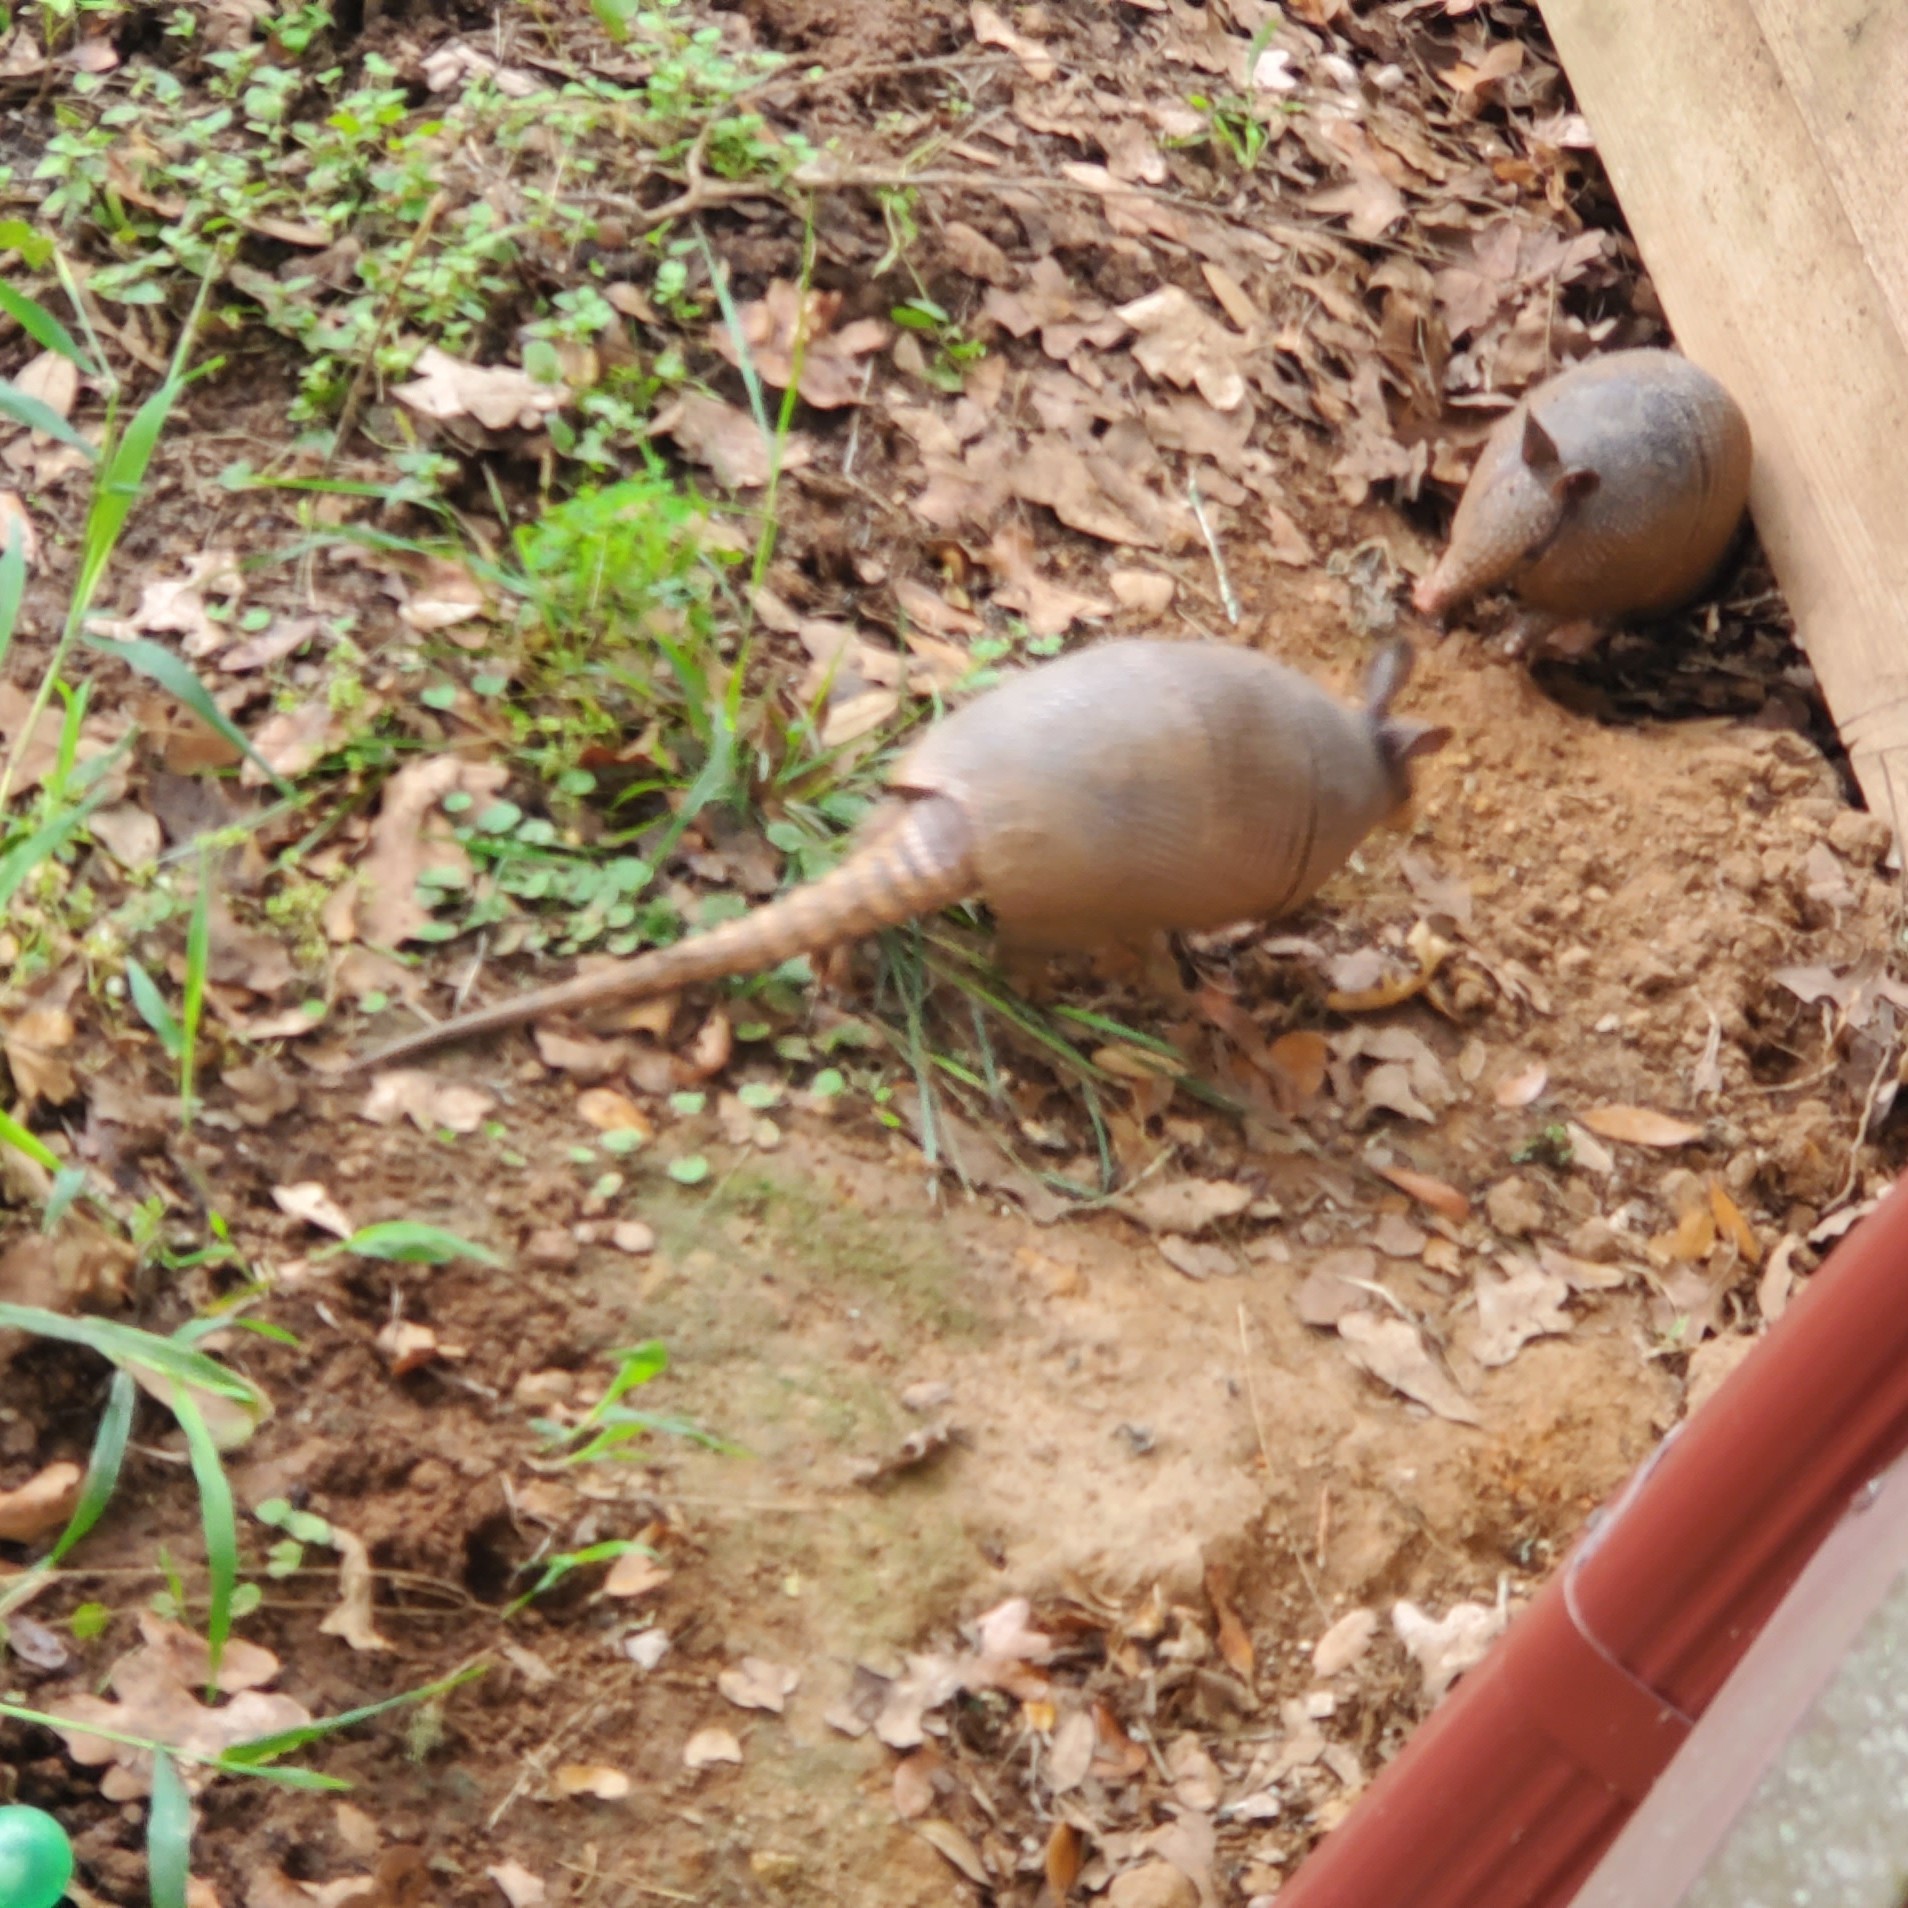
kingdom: Animalia
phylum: Chordata
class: Mammalia
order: Cingulata
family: Dasypodidae
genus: Dasypus
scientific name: Dasypus novemcinctus
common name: Nine-banded armadillo
